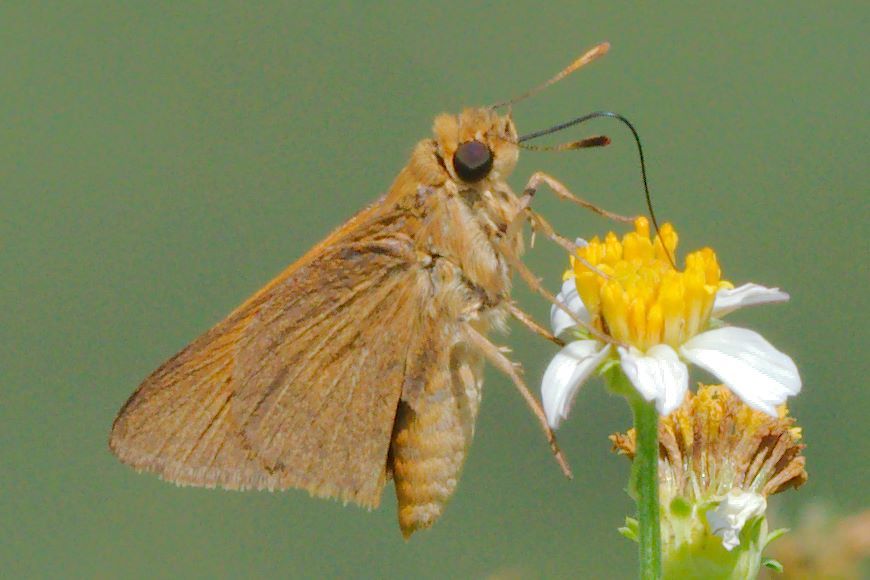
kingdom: Animalia
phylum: Arthropoda
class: Insecta
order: Lepidoptera
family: Hesperiidae
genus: Atrytone
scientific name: Atrytone delaware
